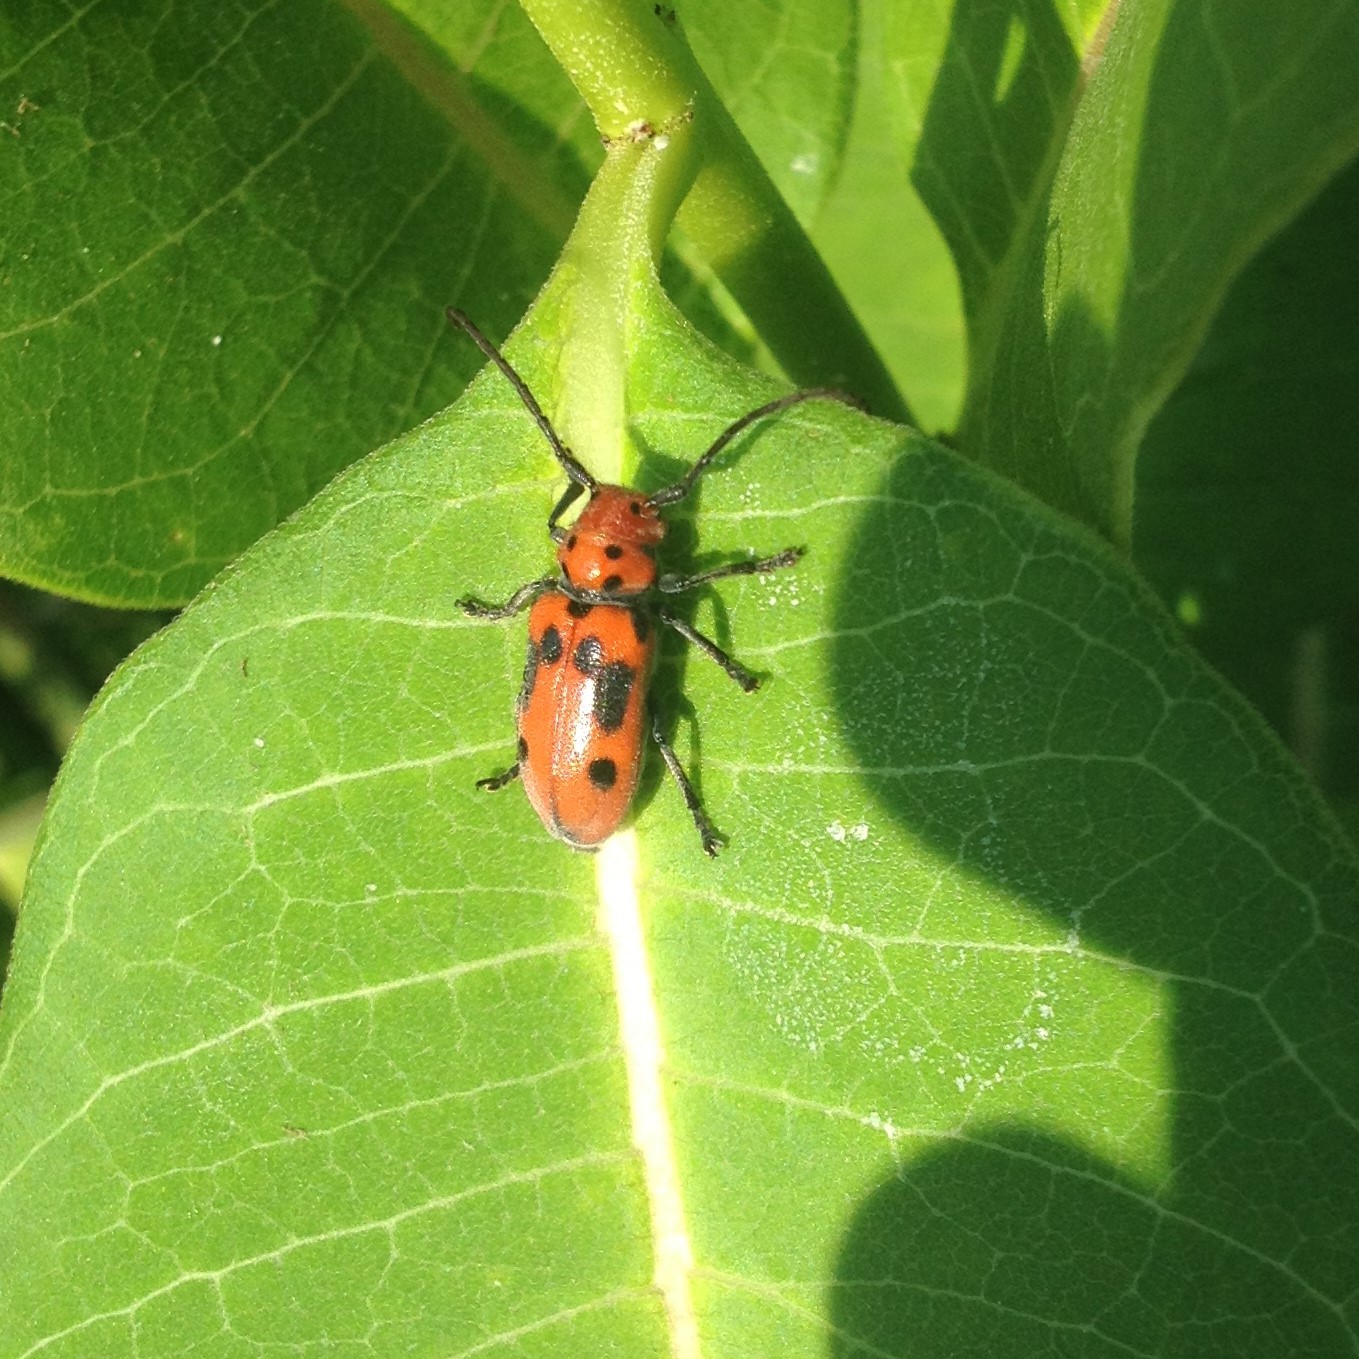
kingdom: Animalia
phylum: Arthropoda
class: Insecta
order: Coleoptera
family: Cerambycidae
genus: Tetraopes
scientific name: Tetraopes tetrophthalmus
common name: Red milkweed beetle
